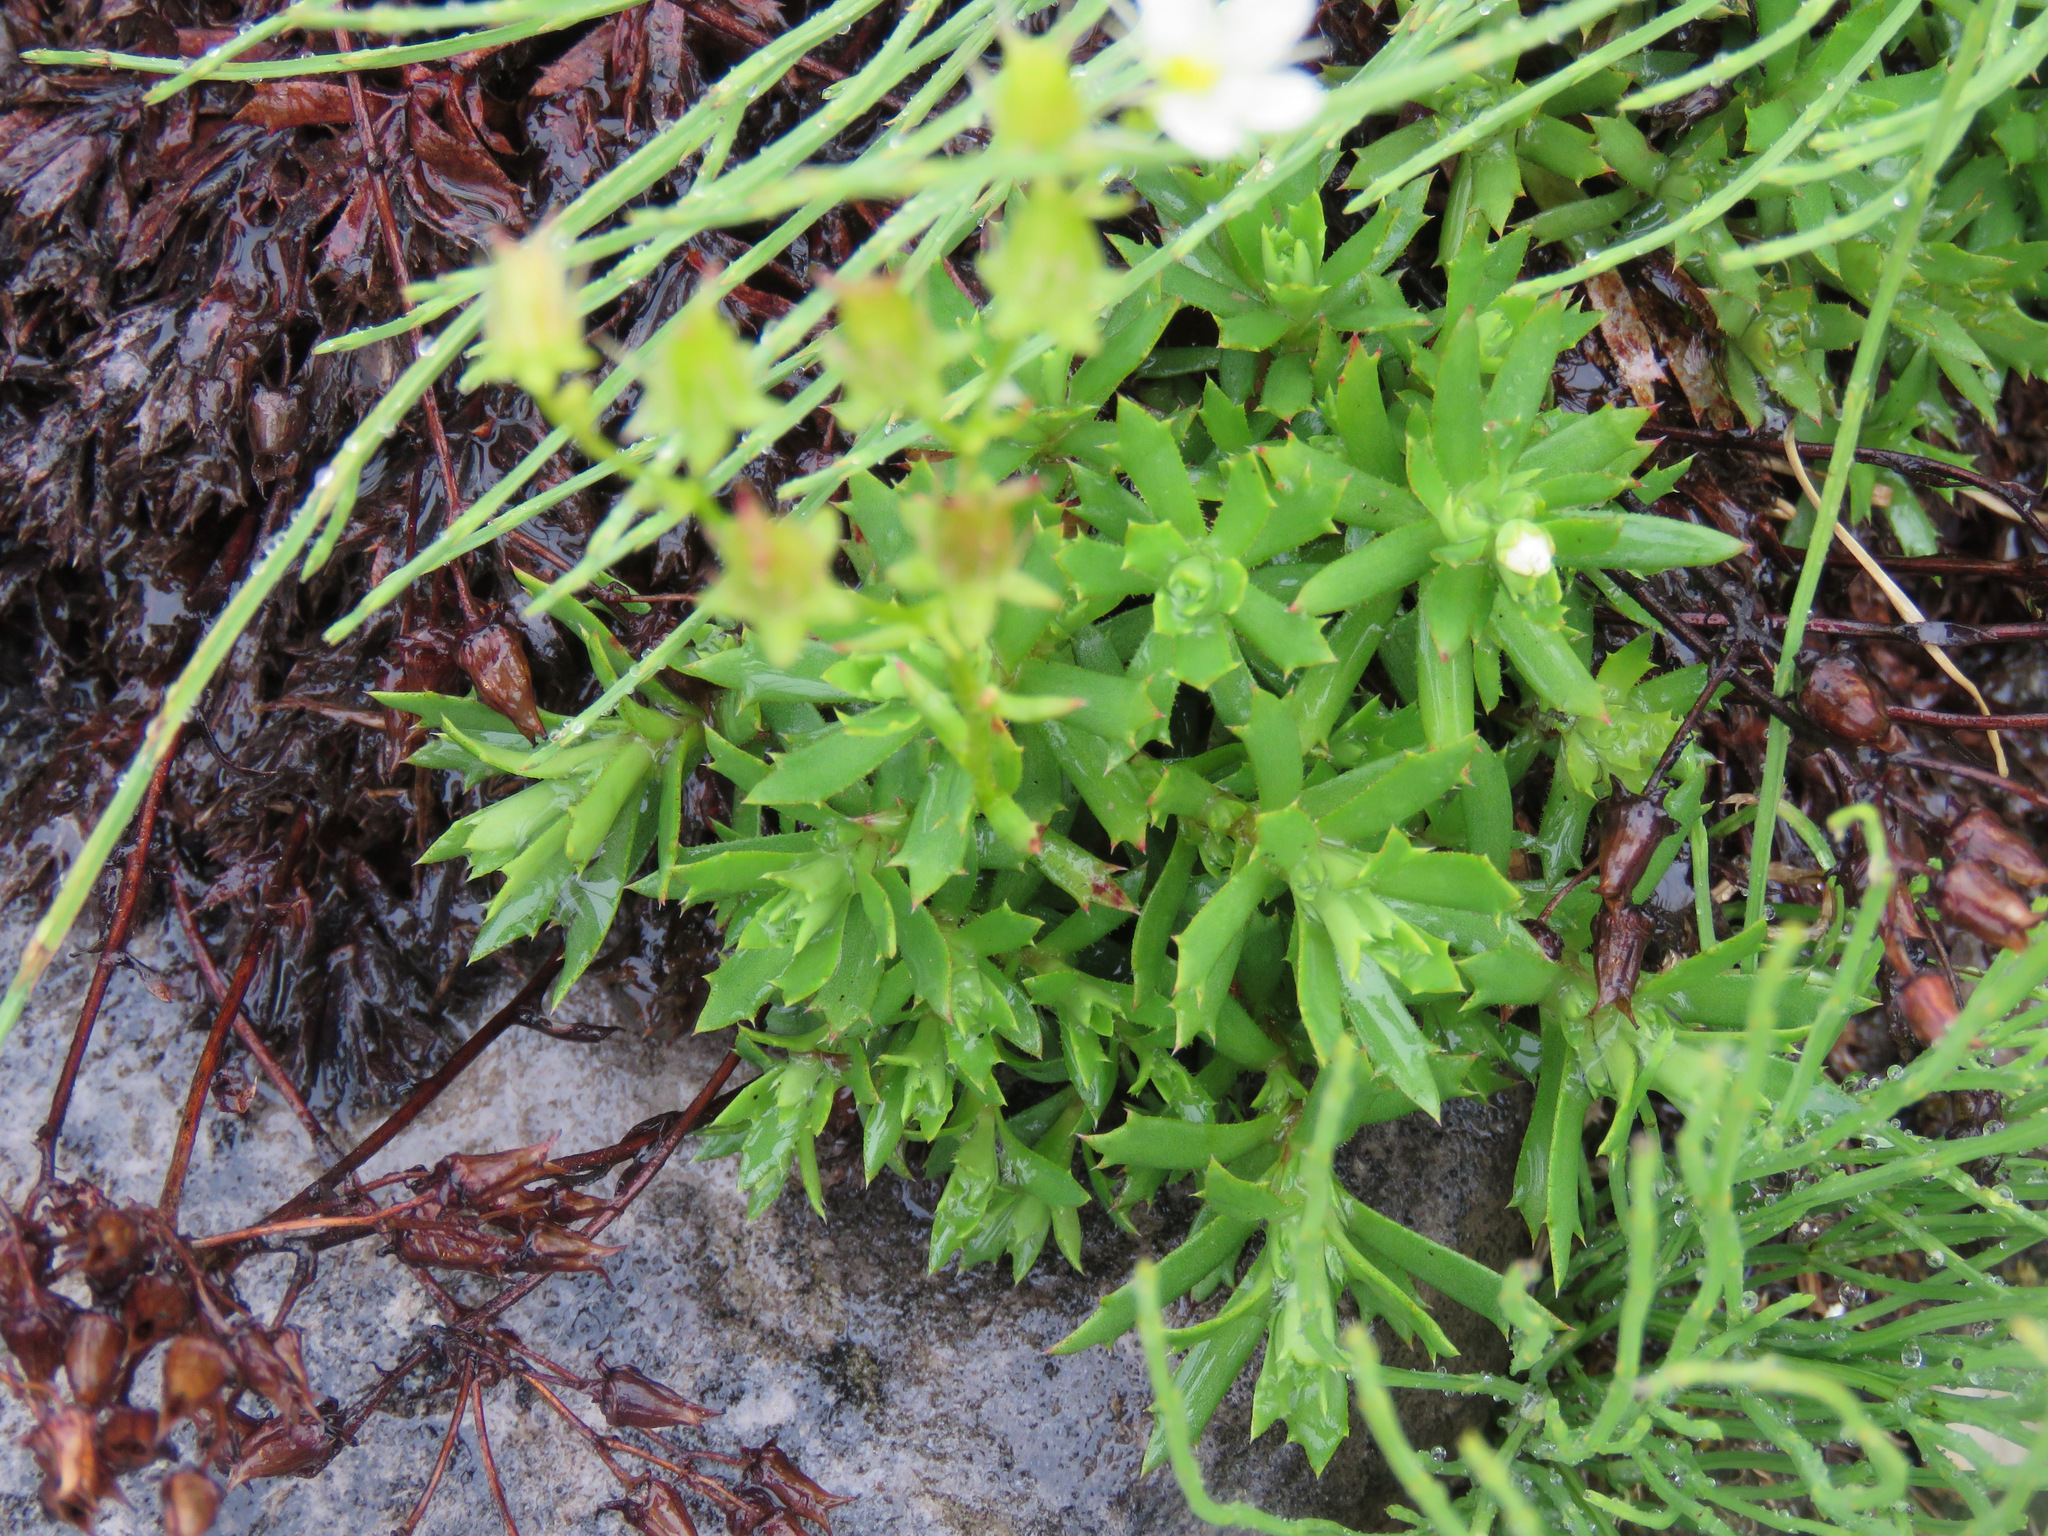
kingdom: Plantae
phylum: Tracheophyta
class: Magnoliopsida
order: Saxifragales
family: Saxifragaceae
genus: Saxifraga
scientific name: Saxifraga tricuspidata
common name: Prickly saxifrage
